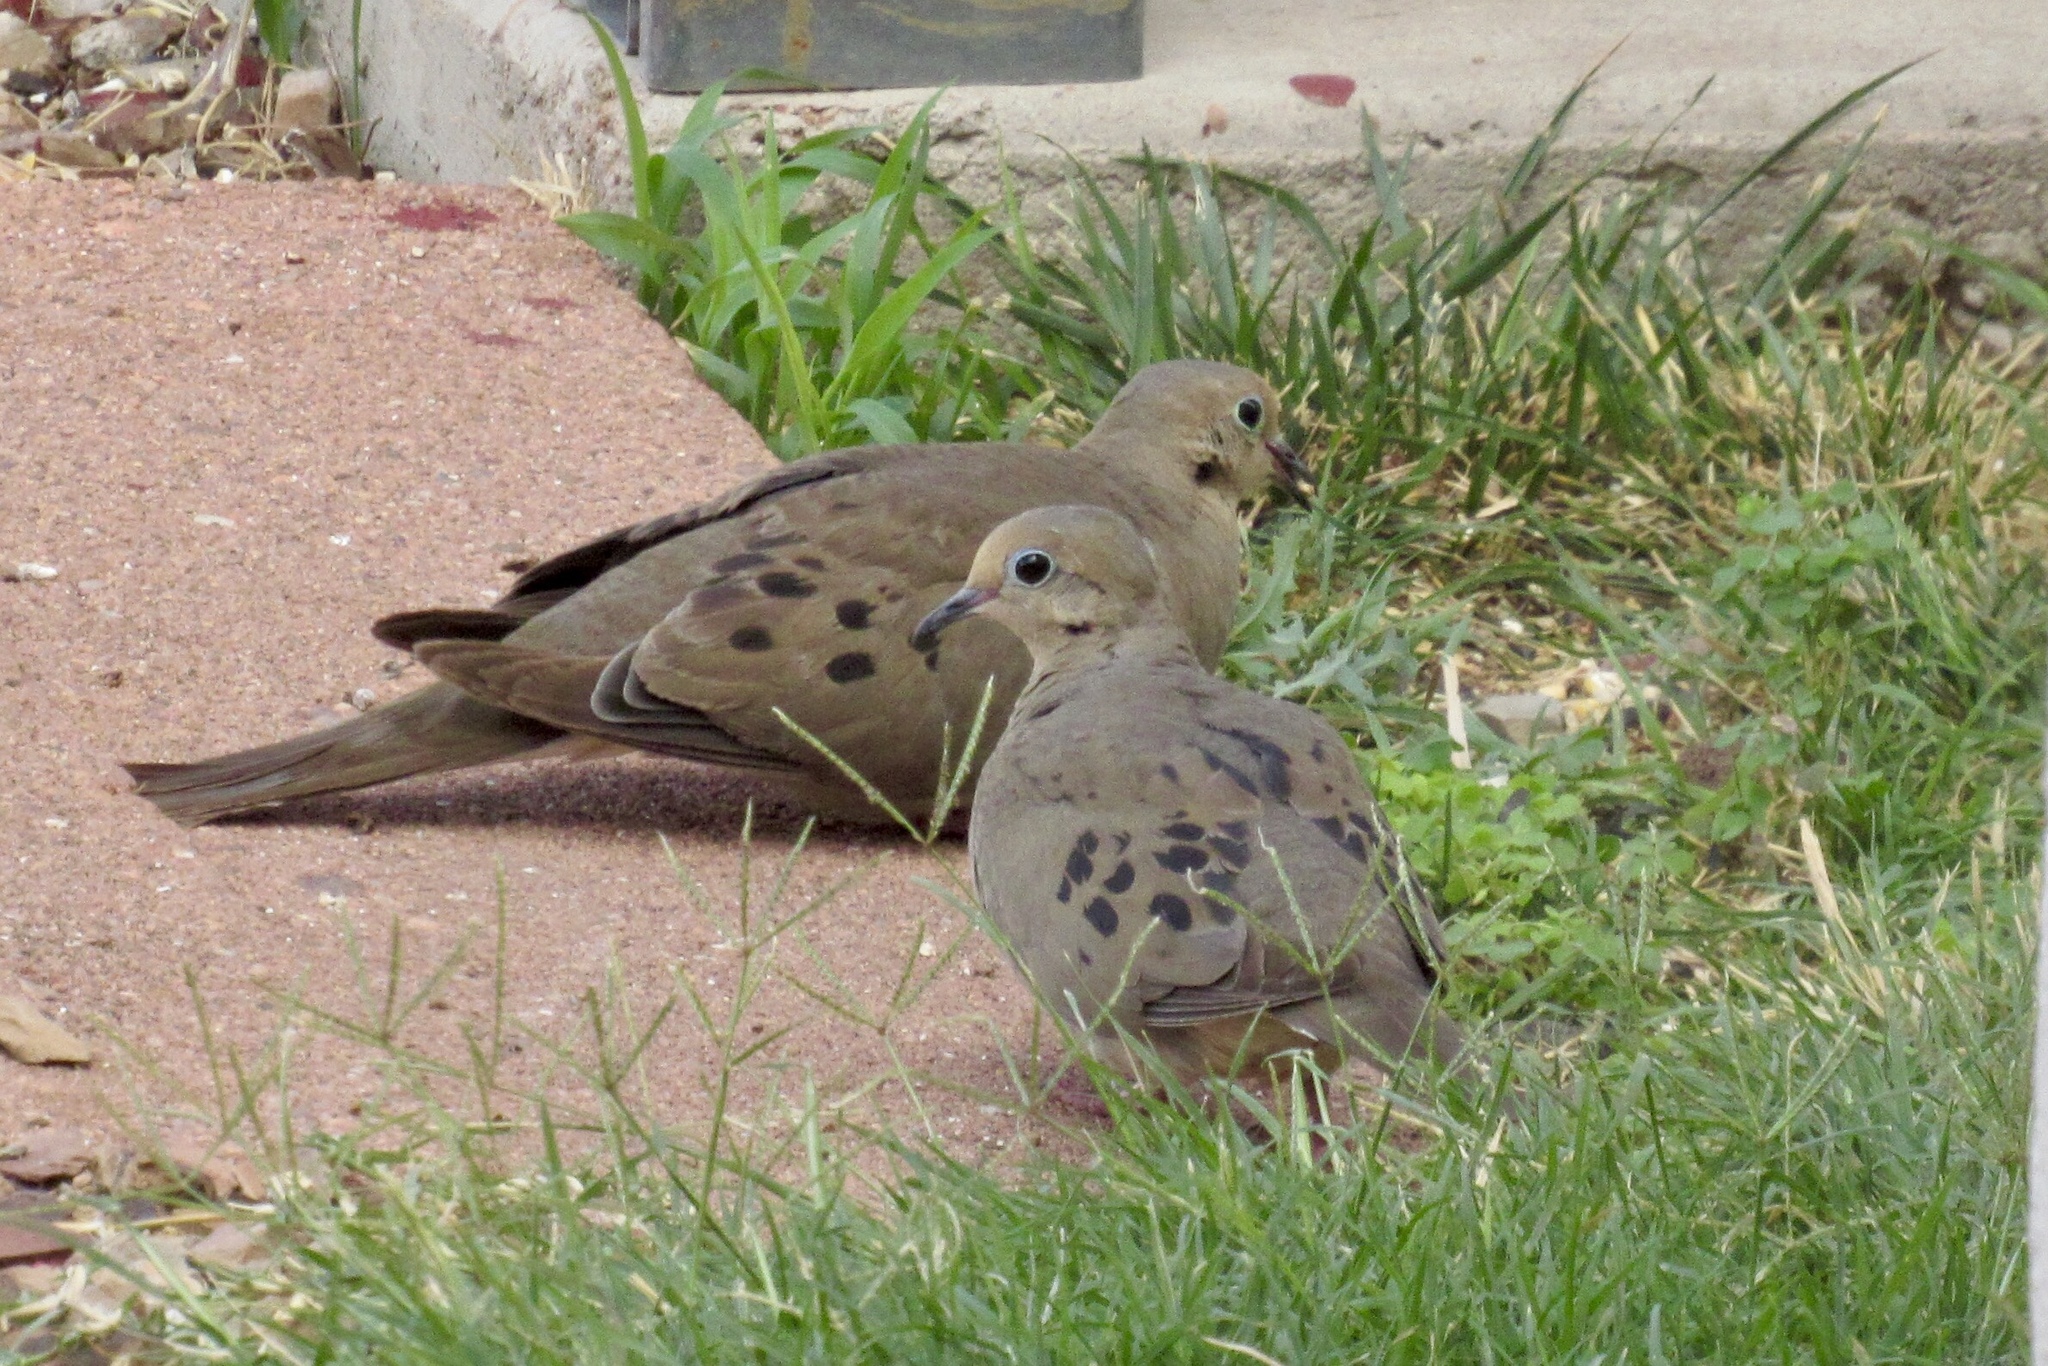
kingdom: Animalia
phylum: Chordata
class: Aves
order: Columbiformes
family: Columbidae
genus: Zenaida
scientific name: Zenaida macroura
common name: Mourning dove
